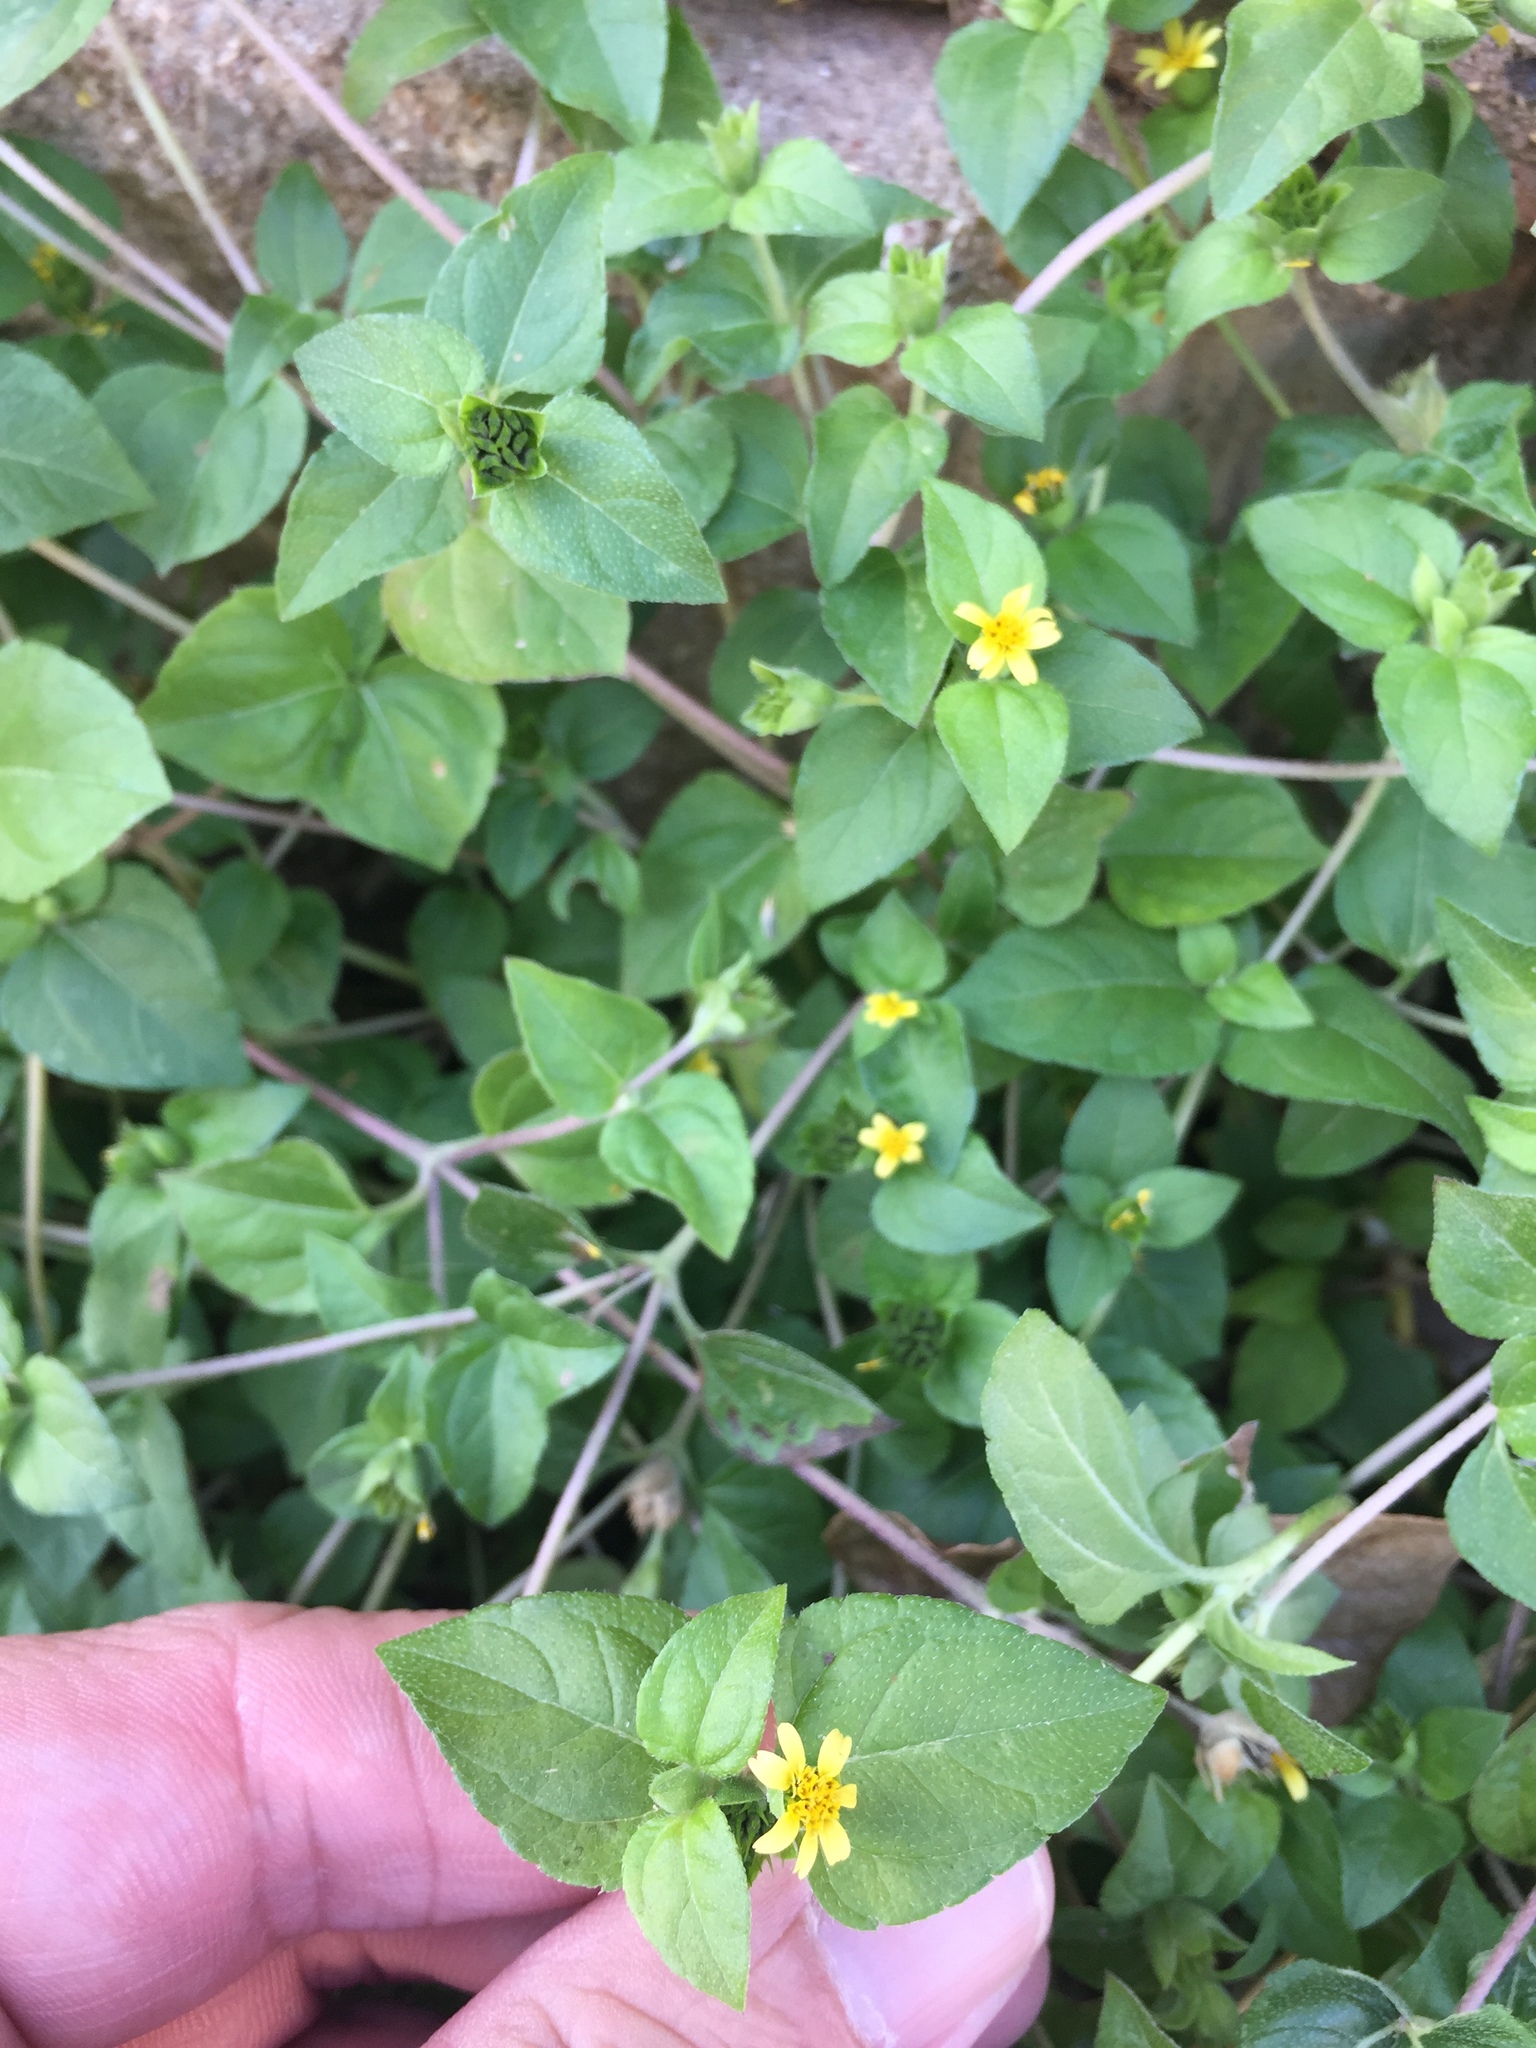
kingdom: Plantae
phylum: Tracheophyta
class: Magnoliopsida
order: Asterales
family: Asteraceae
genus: Calyptocarpus
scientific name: Calyptocarpus vialis
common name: Straggler daisy
